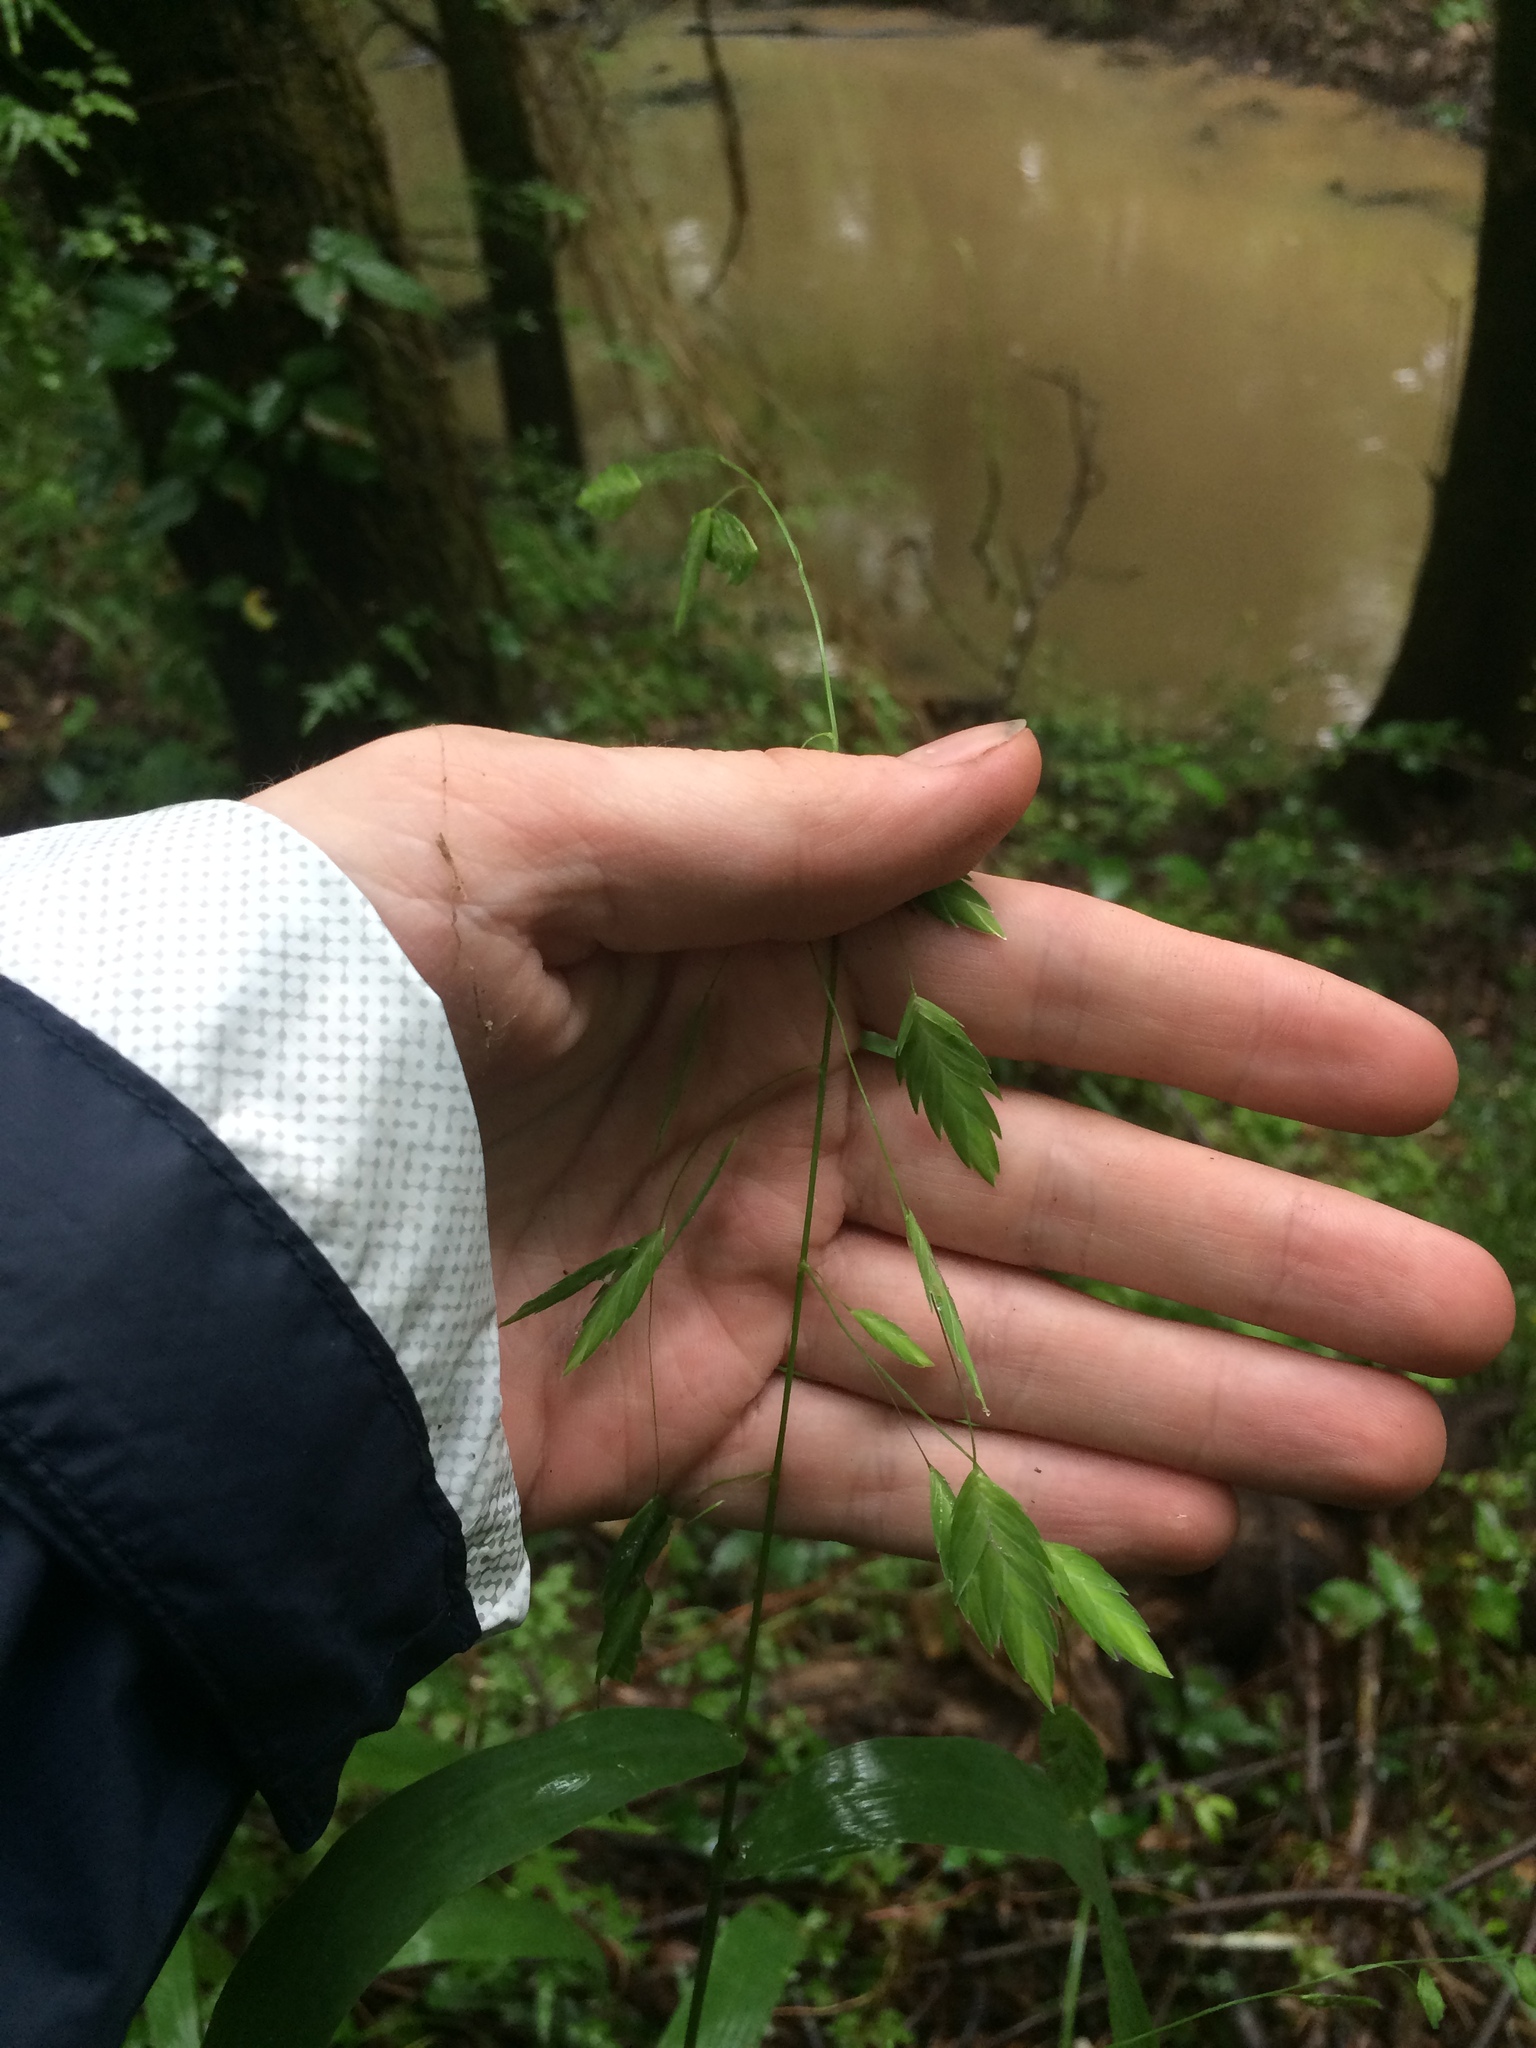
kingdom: Plantae
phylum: Tracheophyta
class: Liliopsida
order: Poales
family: Poaceae
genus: Chasmanthium
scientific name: Chasmanthium latifolium
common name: Broad-leaved chasmanthium
